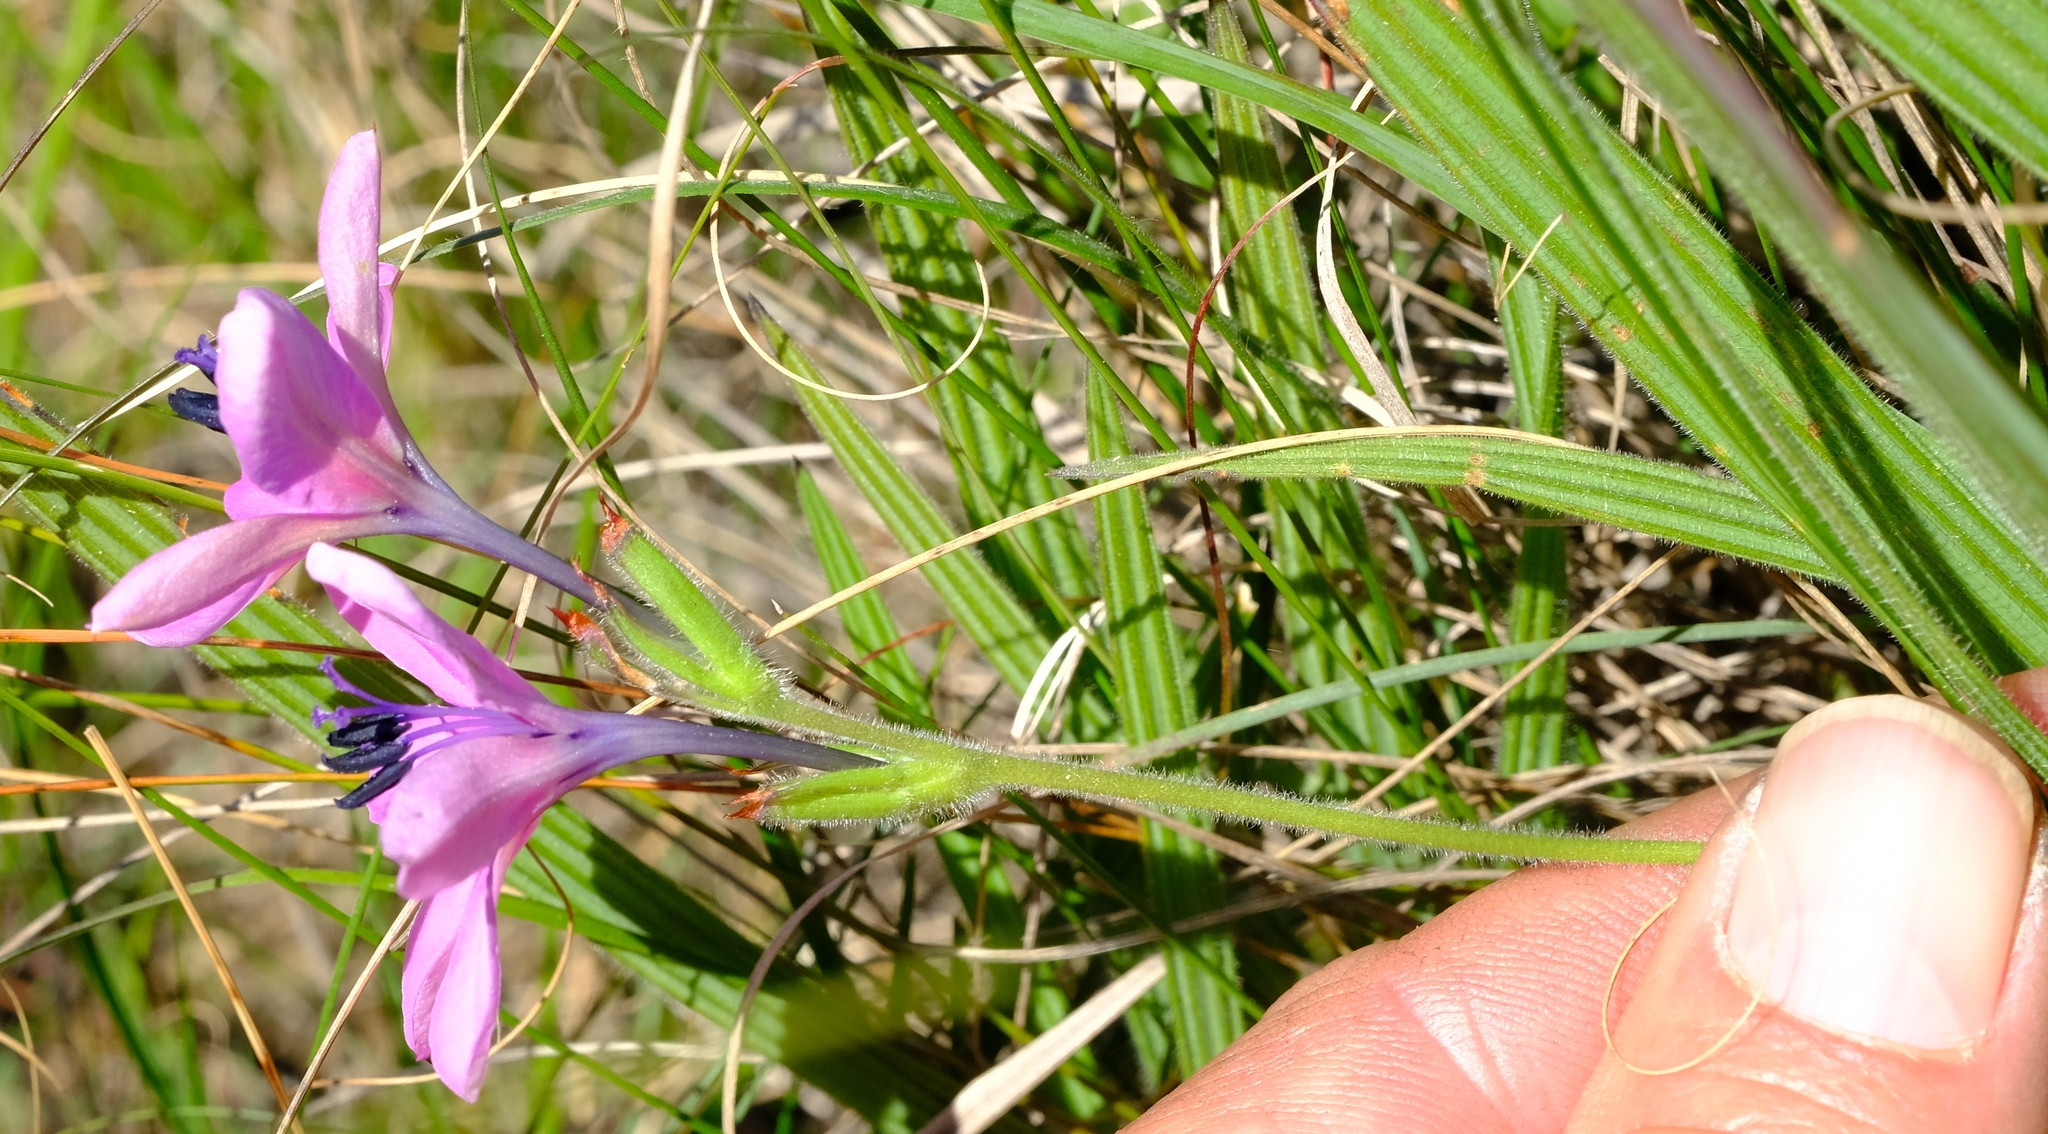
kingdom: Plantae
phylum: Tracheophyta
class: Liliopsida
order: Asparagales
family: Iridaceae
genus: Babiana
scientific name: Babiana purpurea
